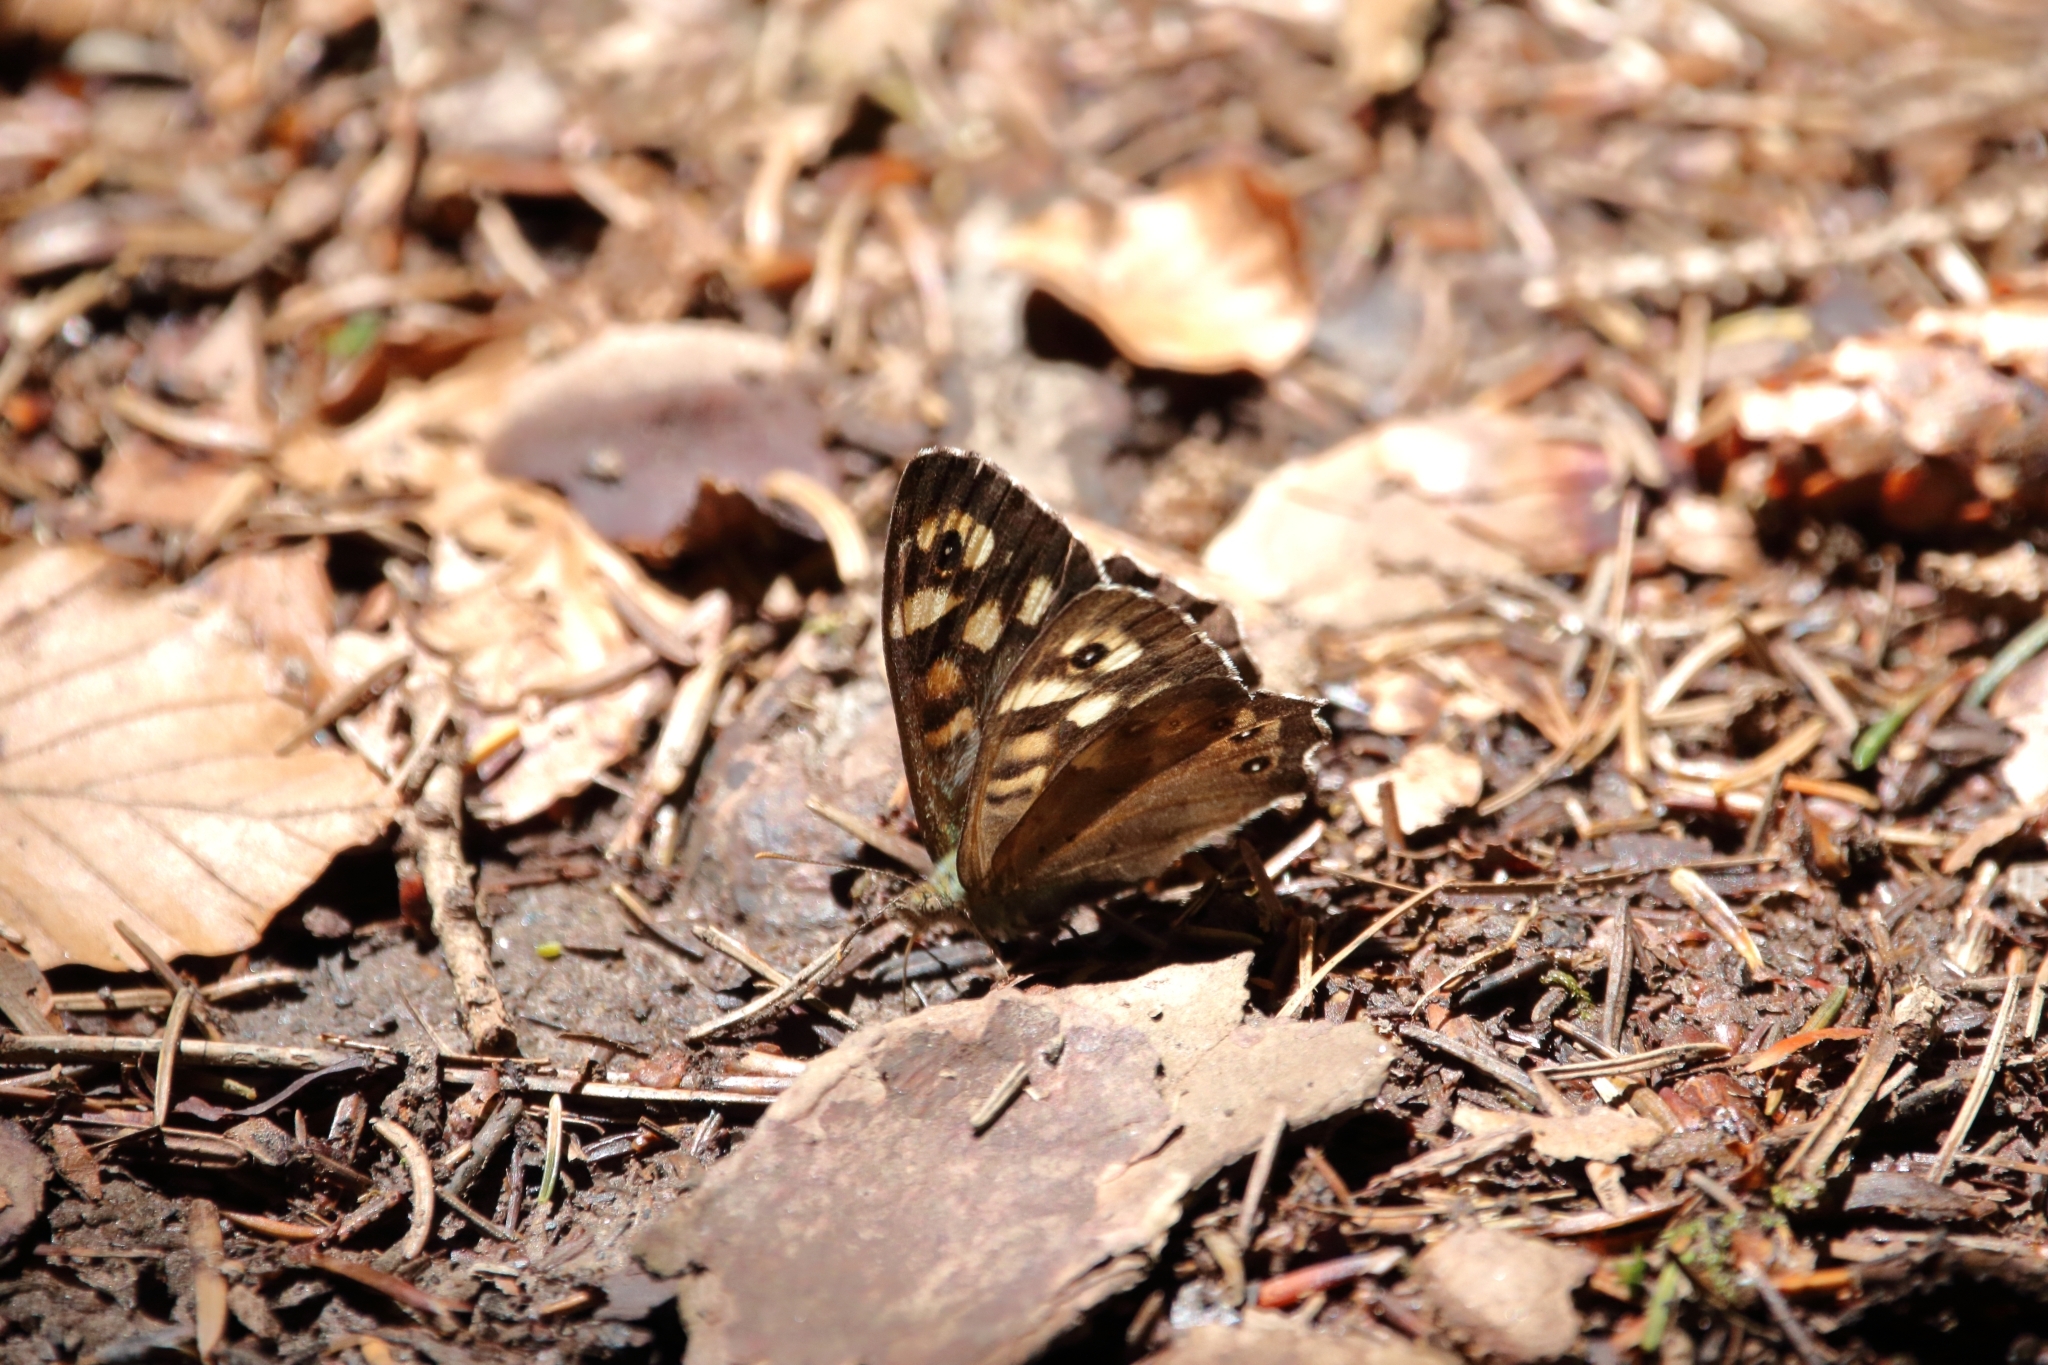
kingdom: Animalia
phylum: Arthropoda
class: Insecta
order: Lepidoptera
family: Nymphalidae
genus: Pararge
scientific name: Pararge aegeria
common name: Speckled wood
